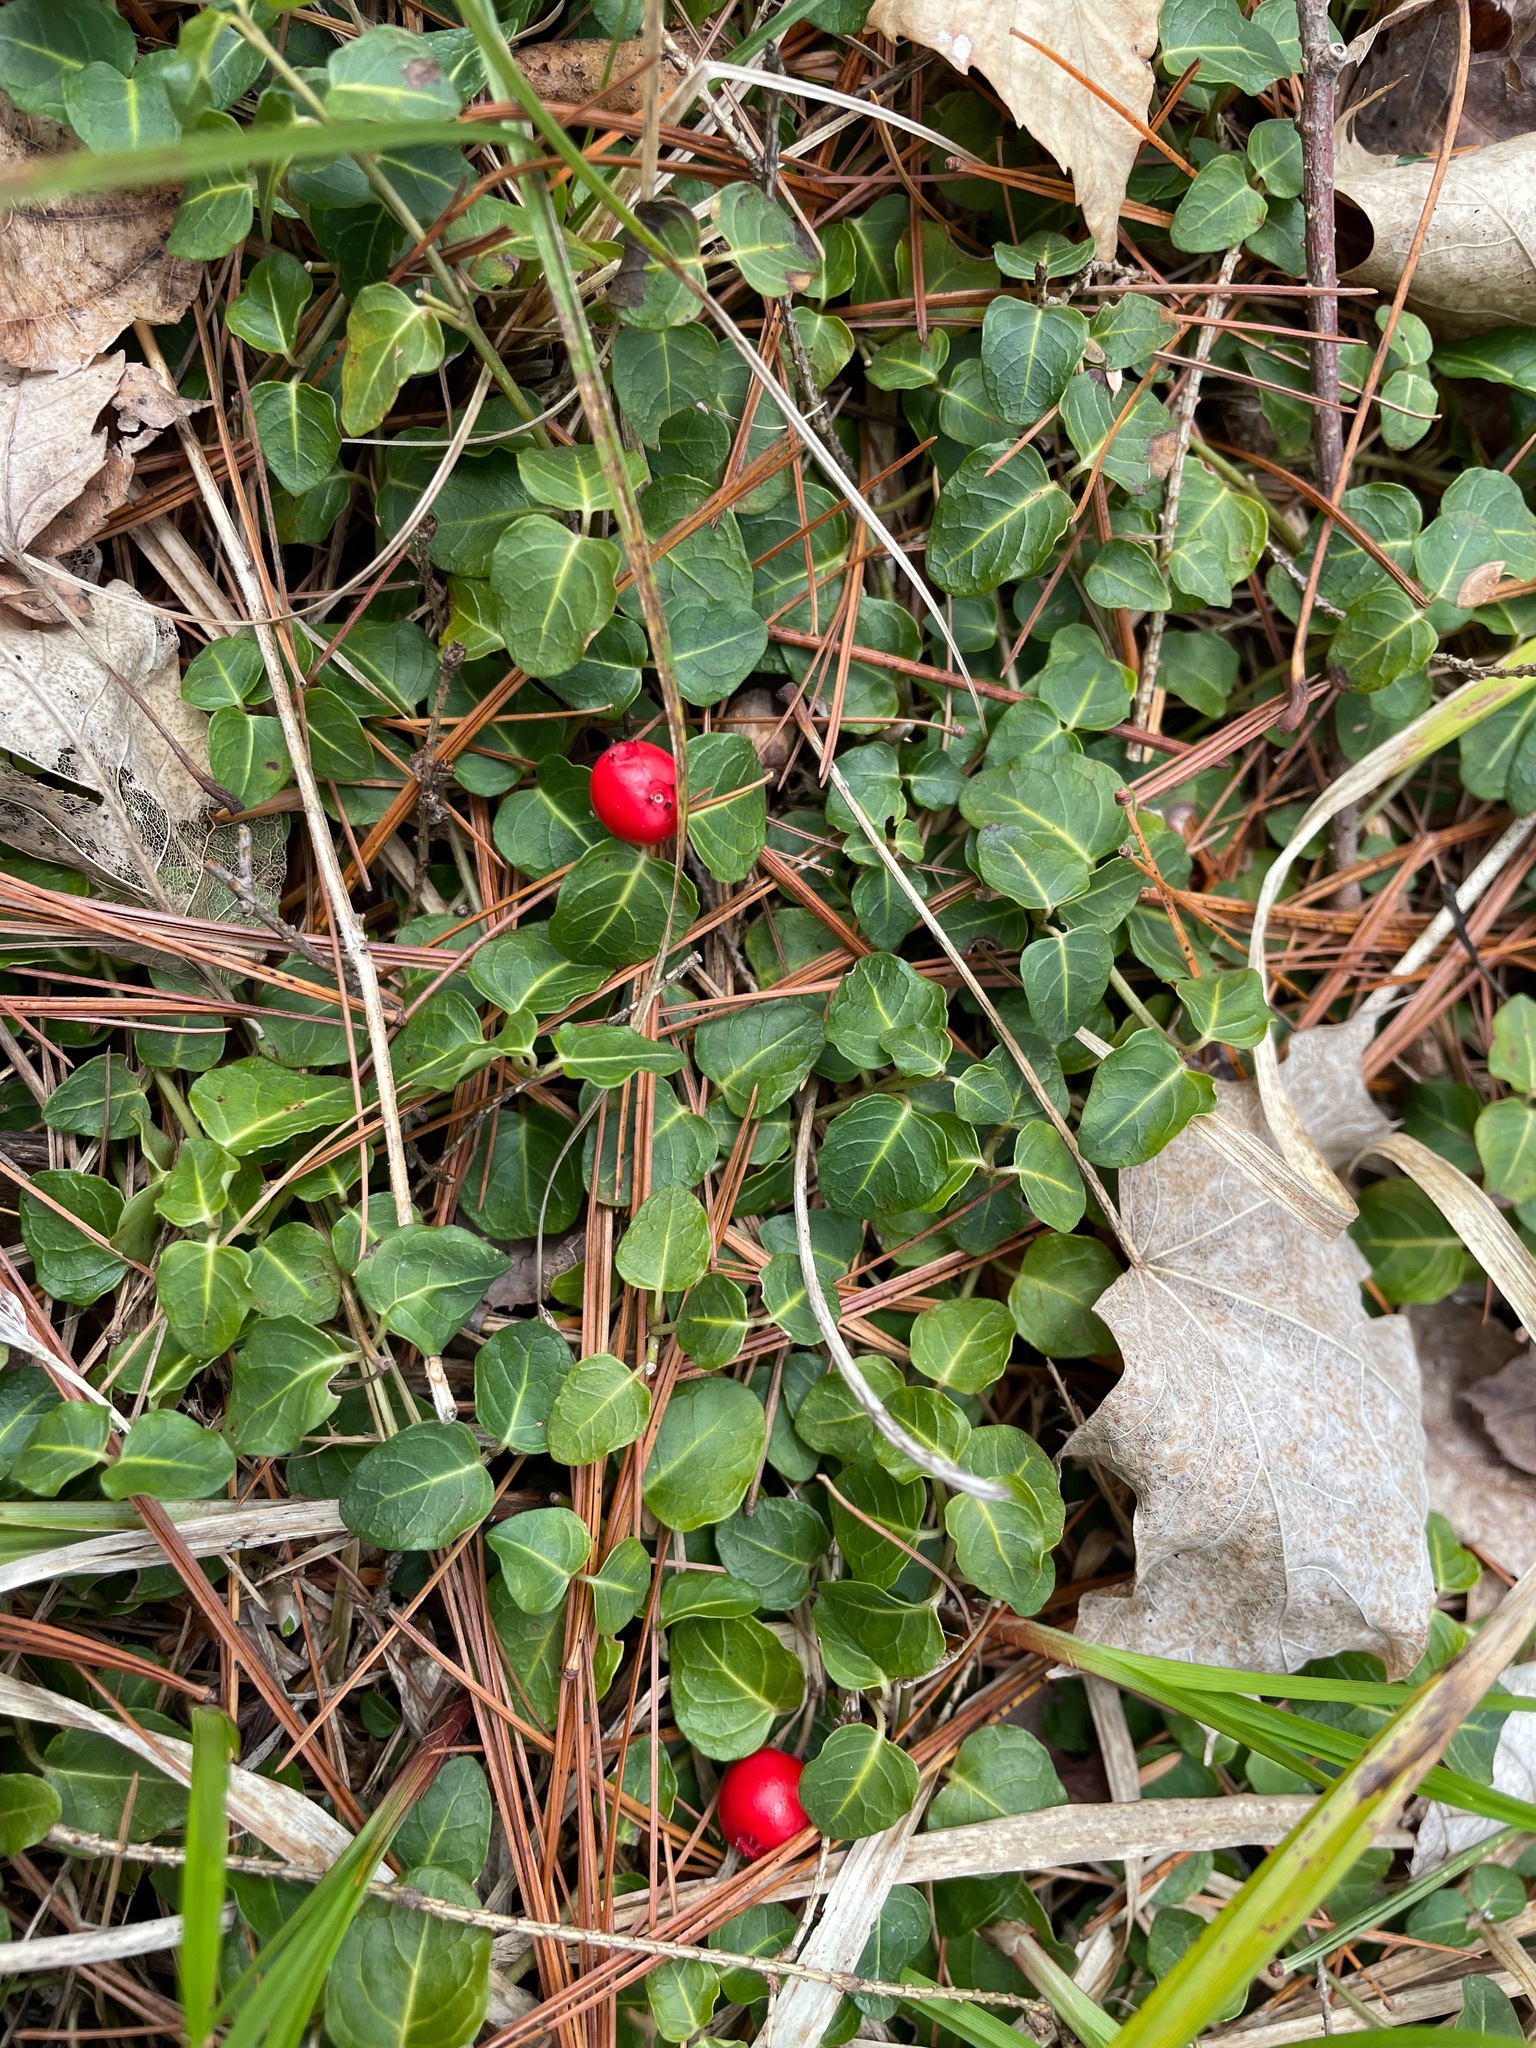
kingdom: Plantae
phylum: Tracheophyta
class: Magnoliopsida
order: Gentianales
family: Rubiaceae
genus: Mitchella
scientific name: Mitchella repens
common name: Partridge-berry
